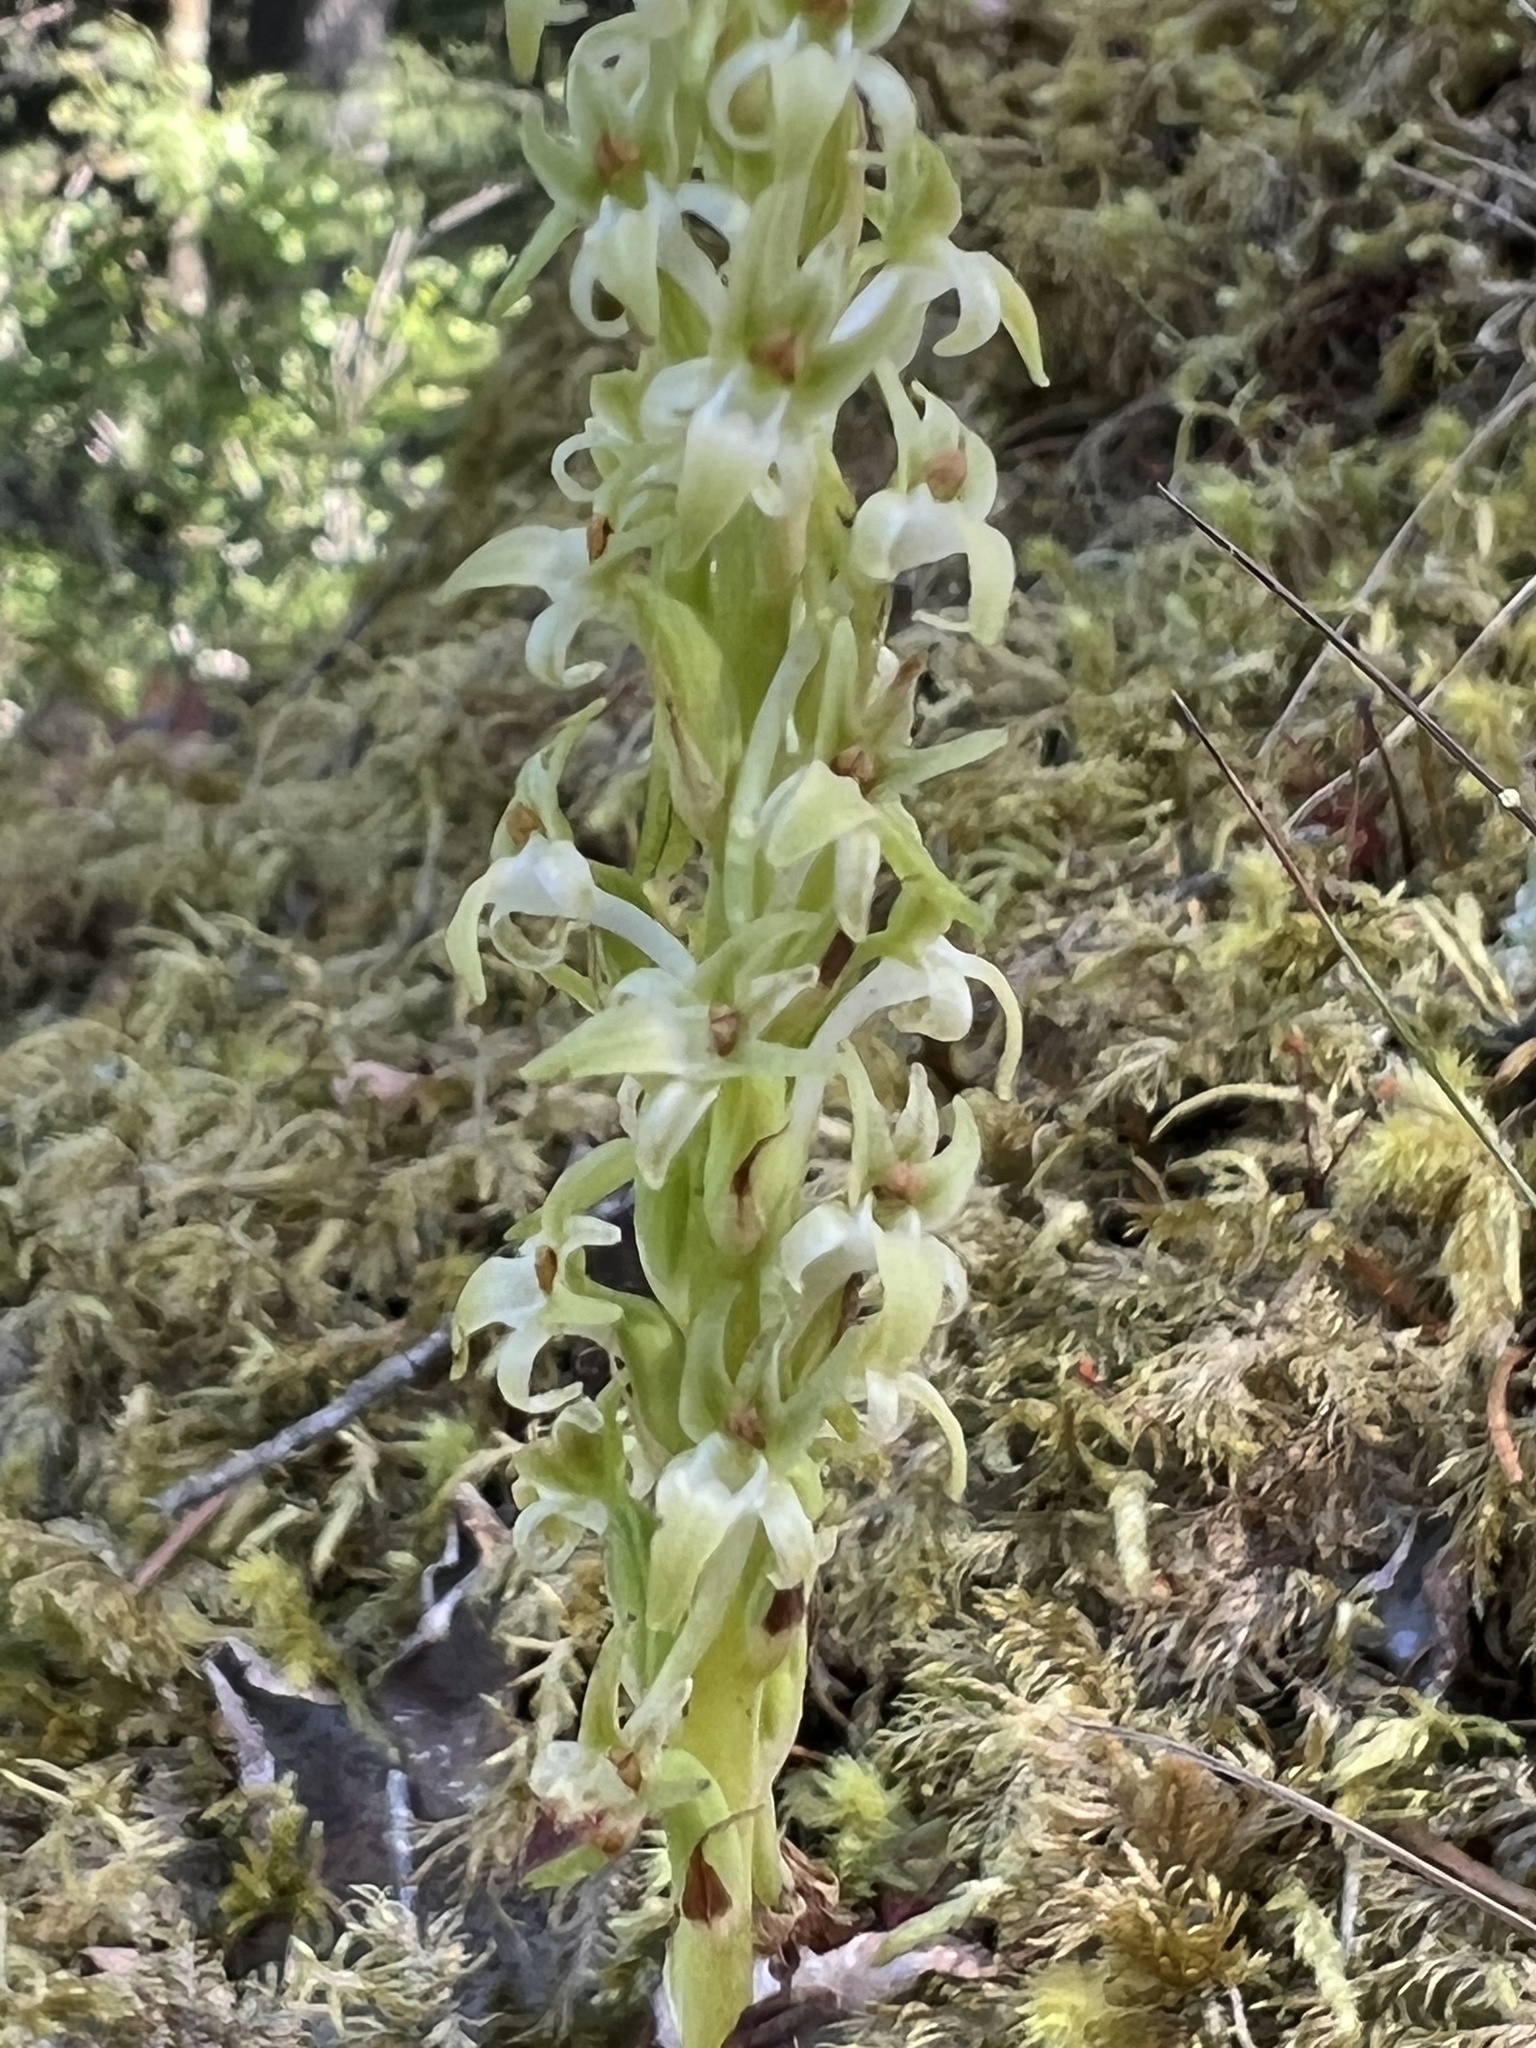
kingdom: Plantae
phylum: Tracheophyta
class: Liliopsida
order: Asparagales
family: Orchidaceae
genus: Platanthera
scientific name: Platanthera elongata
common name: Dense-flowered rein orchid
